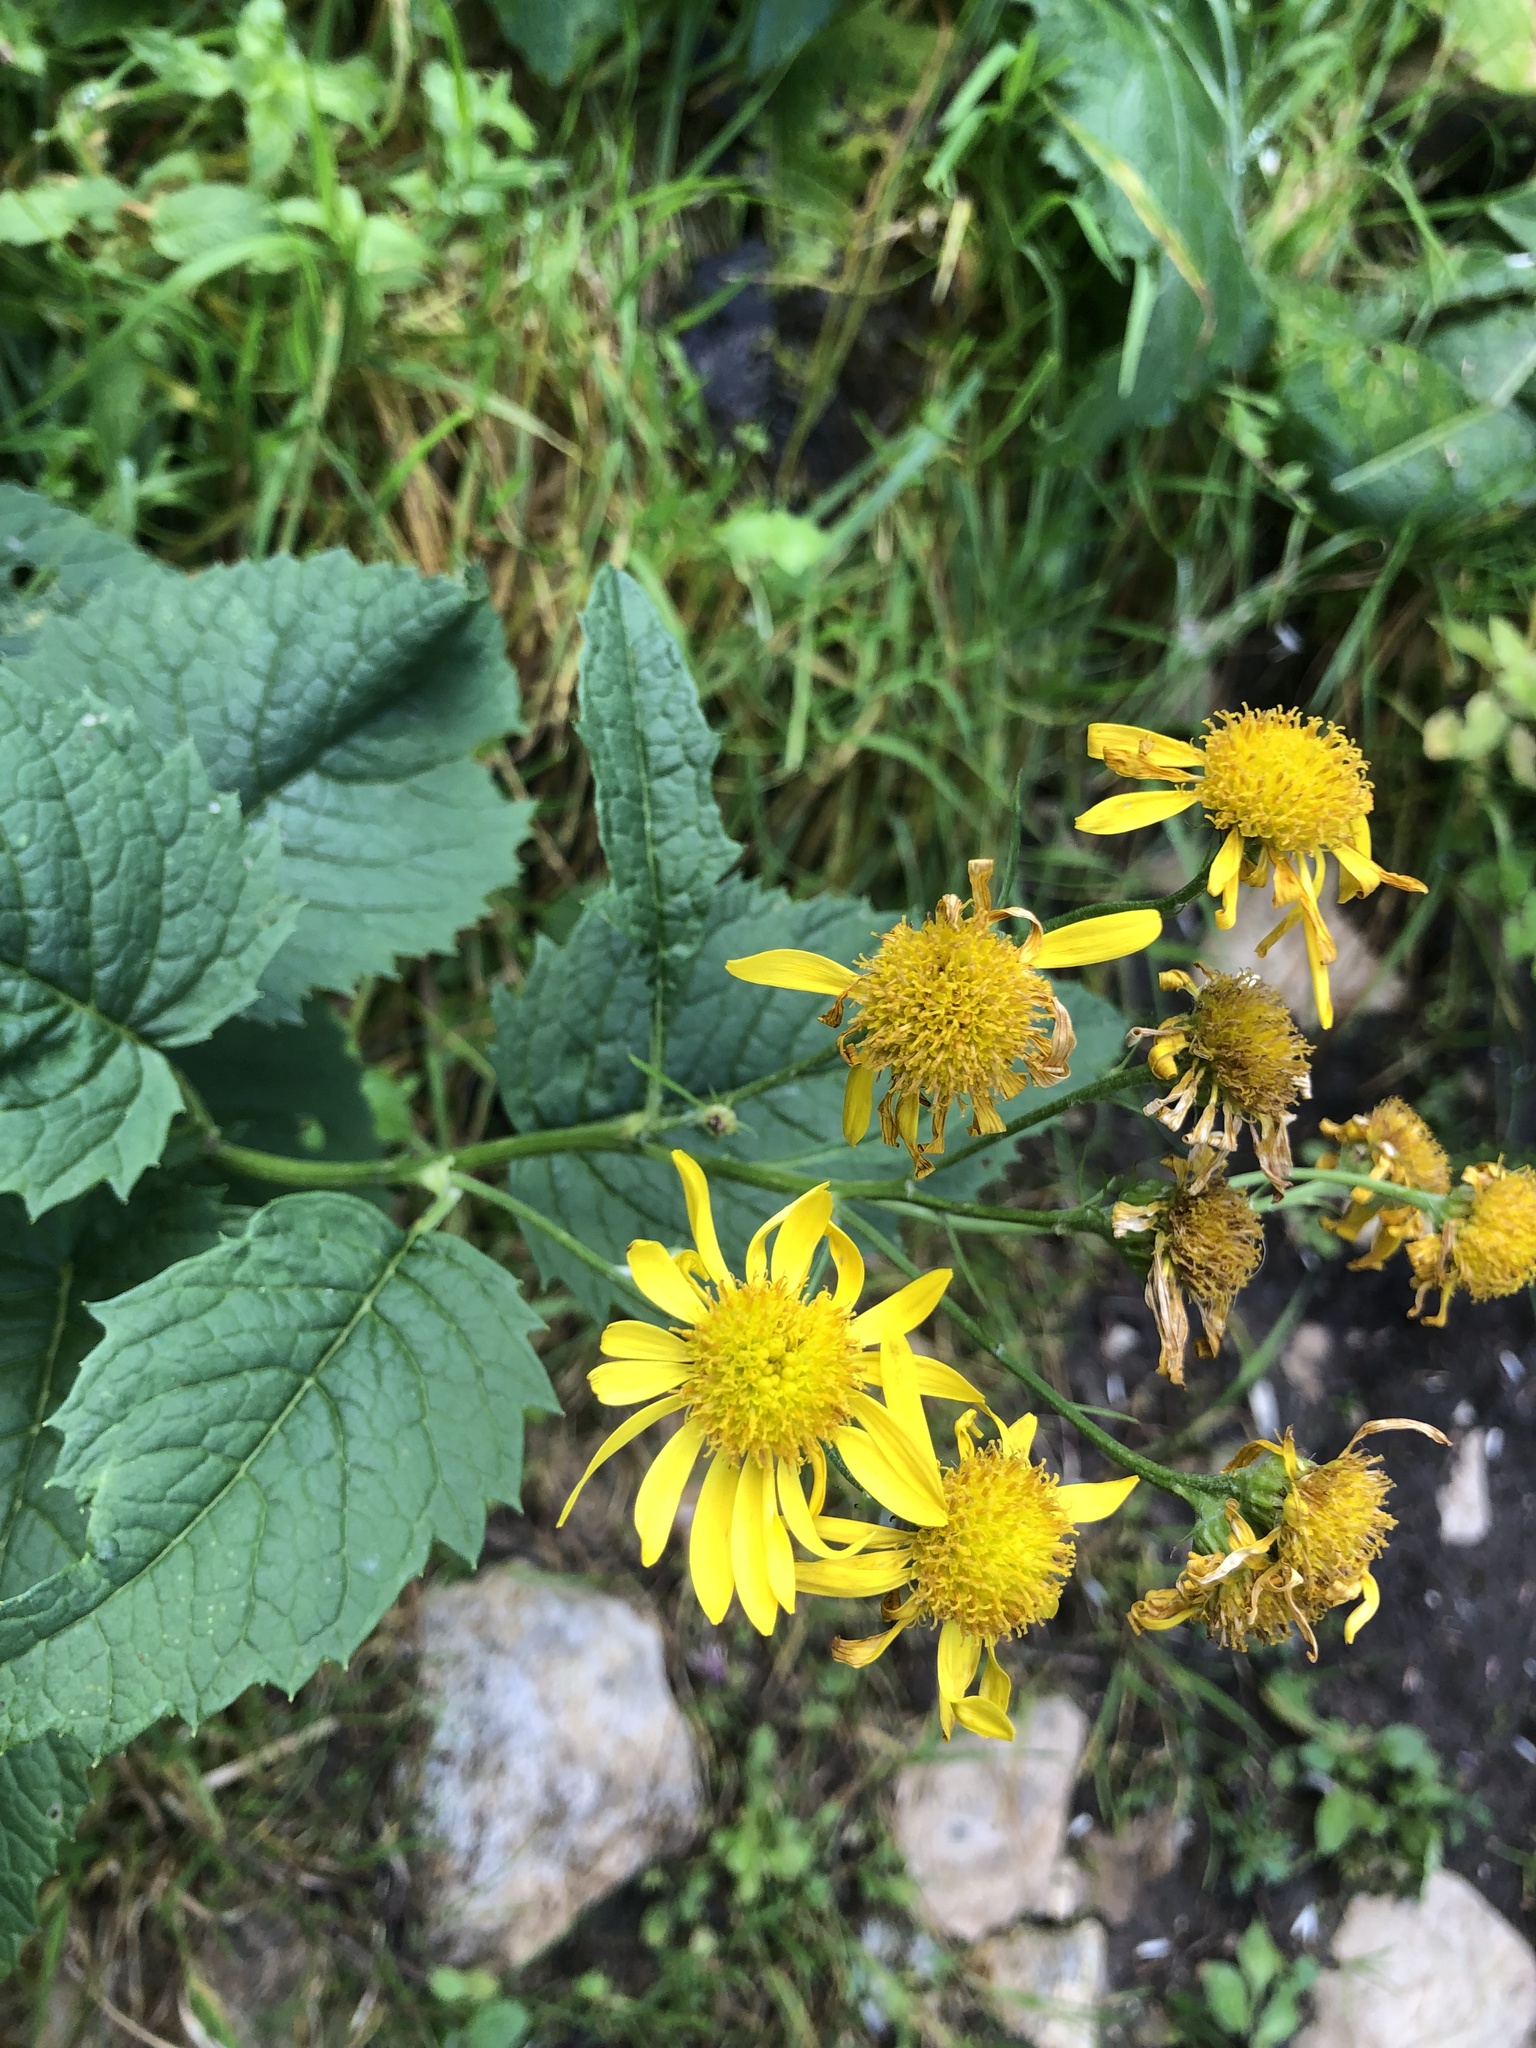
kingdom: Plantae
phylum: Tracheophyta
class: Magnoliopsida
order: Asterales
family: Asteraceae
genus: Jacobaea
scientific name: Jacobaea alpina
